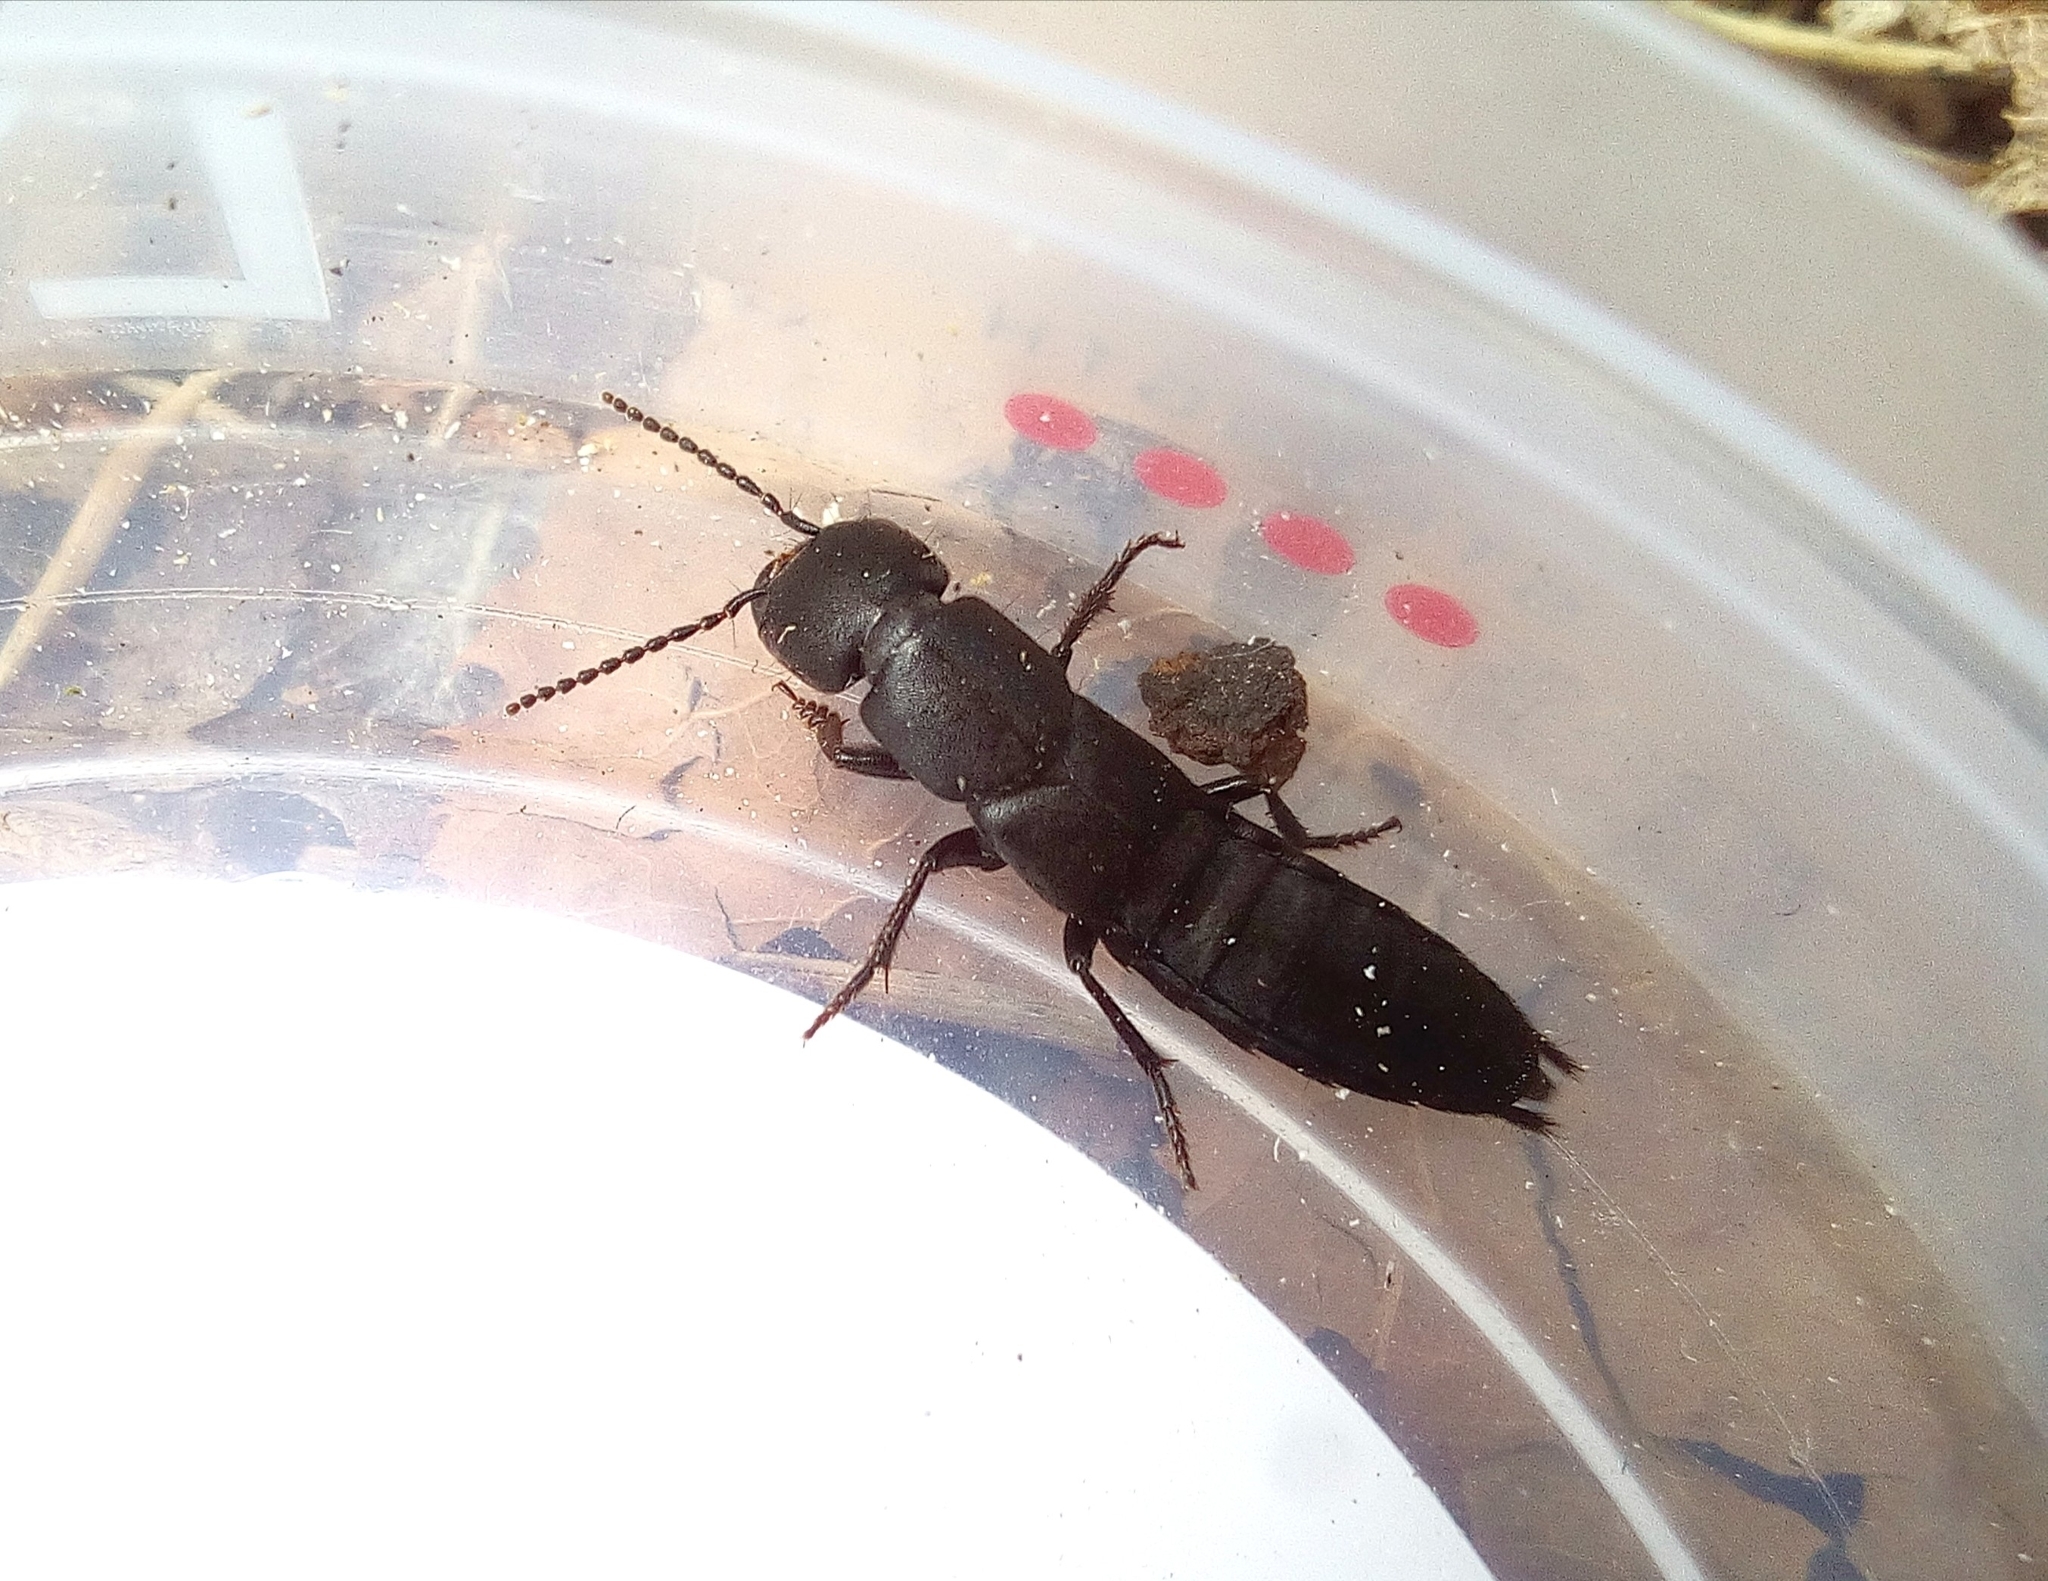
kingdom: Animalia
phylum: Arthropoda
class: Insecta
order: Coleoptera
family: Staphylinidae
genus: Ocypus
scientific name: Ocypus nitens
